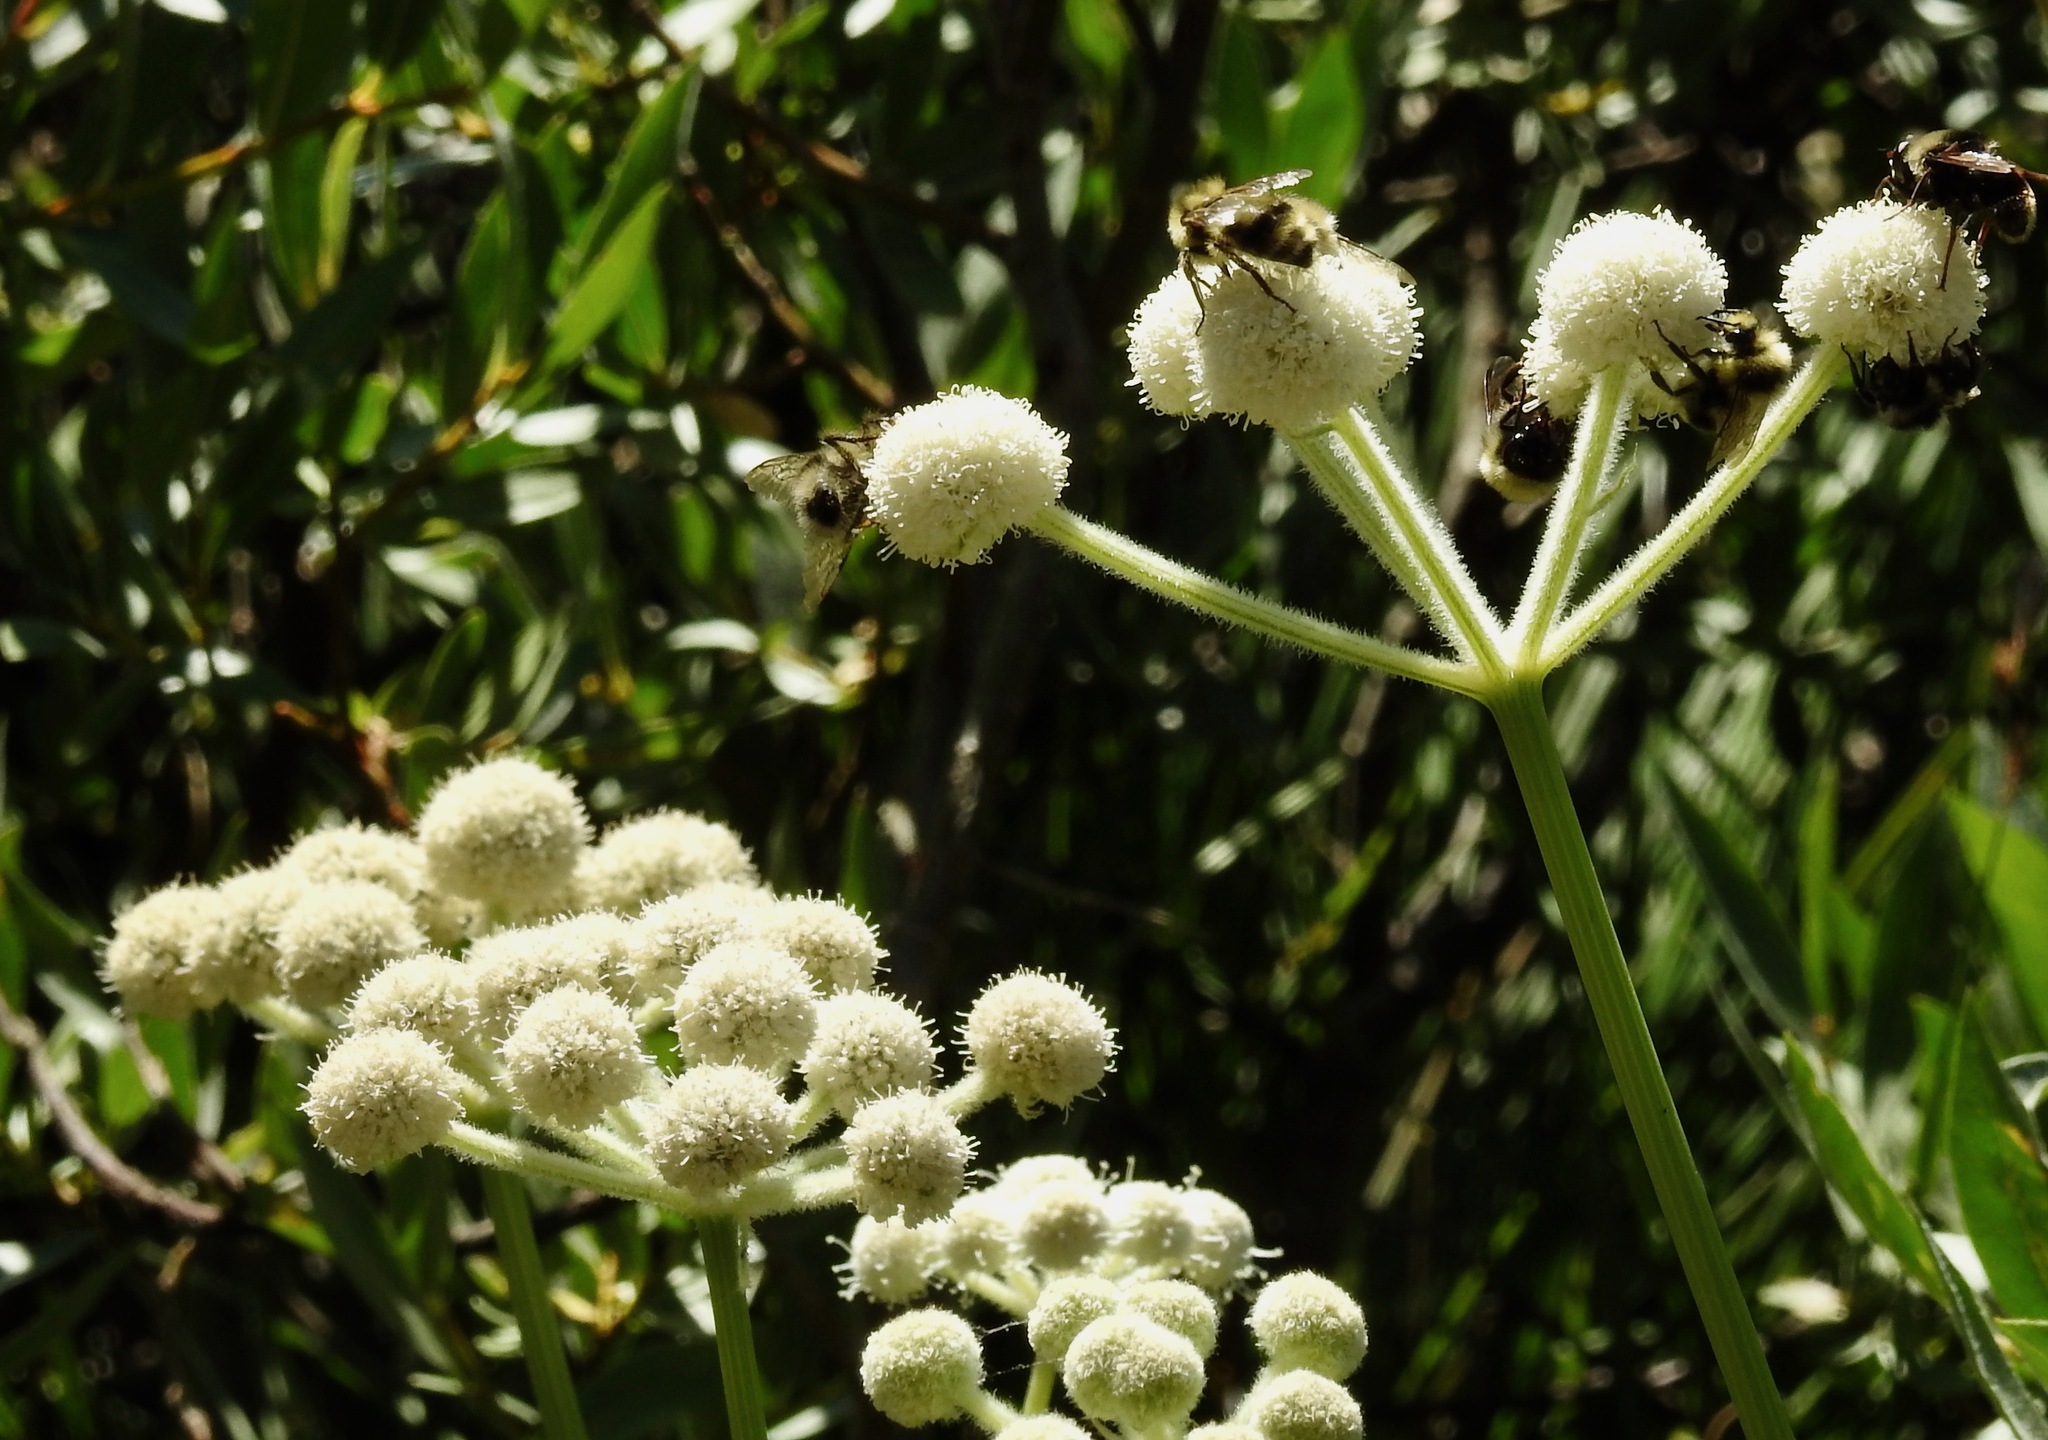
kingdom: Plantae
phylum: Tracheophyta
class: Magnoliopsida
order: Apiales
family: Apiaceae
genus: Angelica
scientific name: Angelica capitellata
